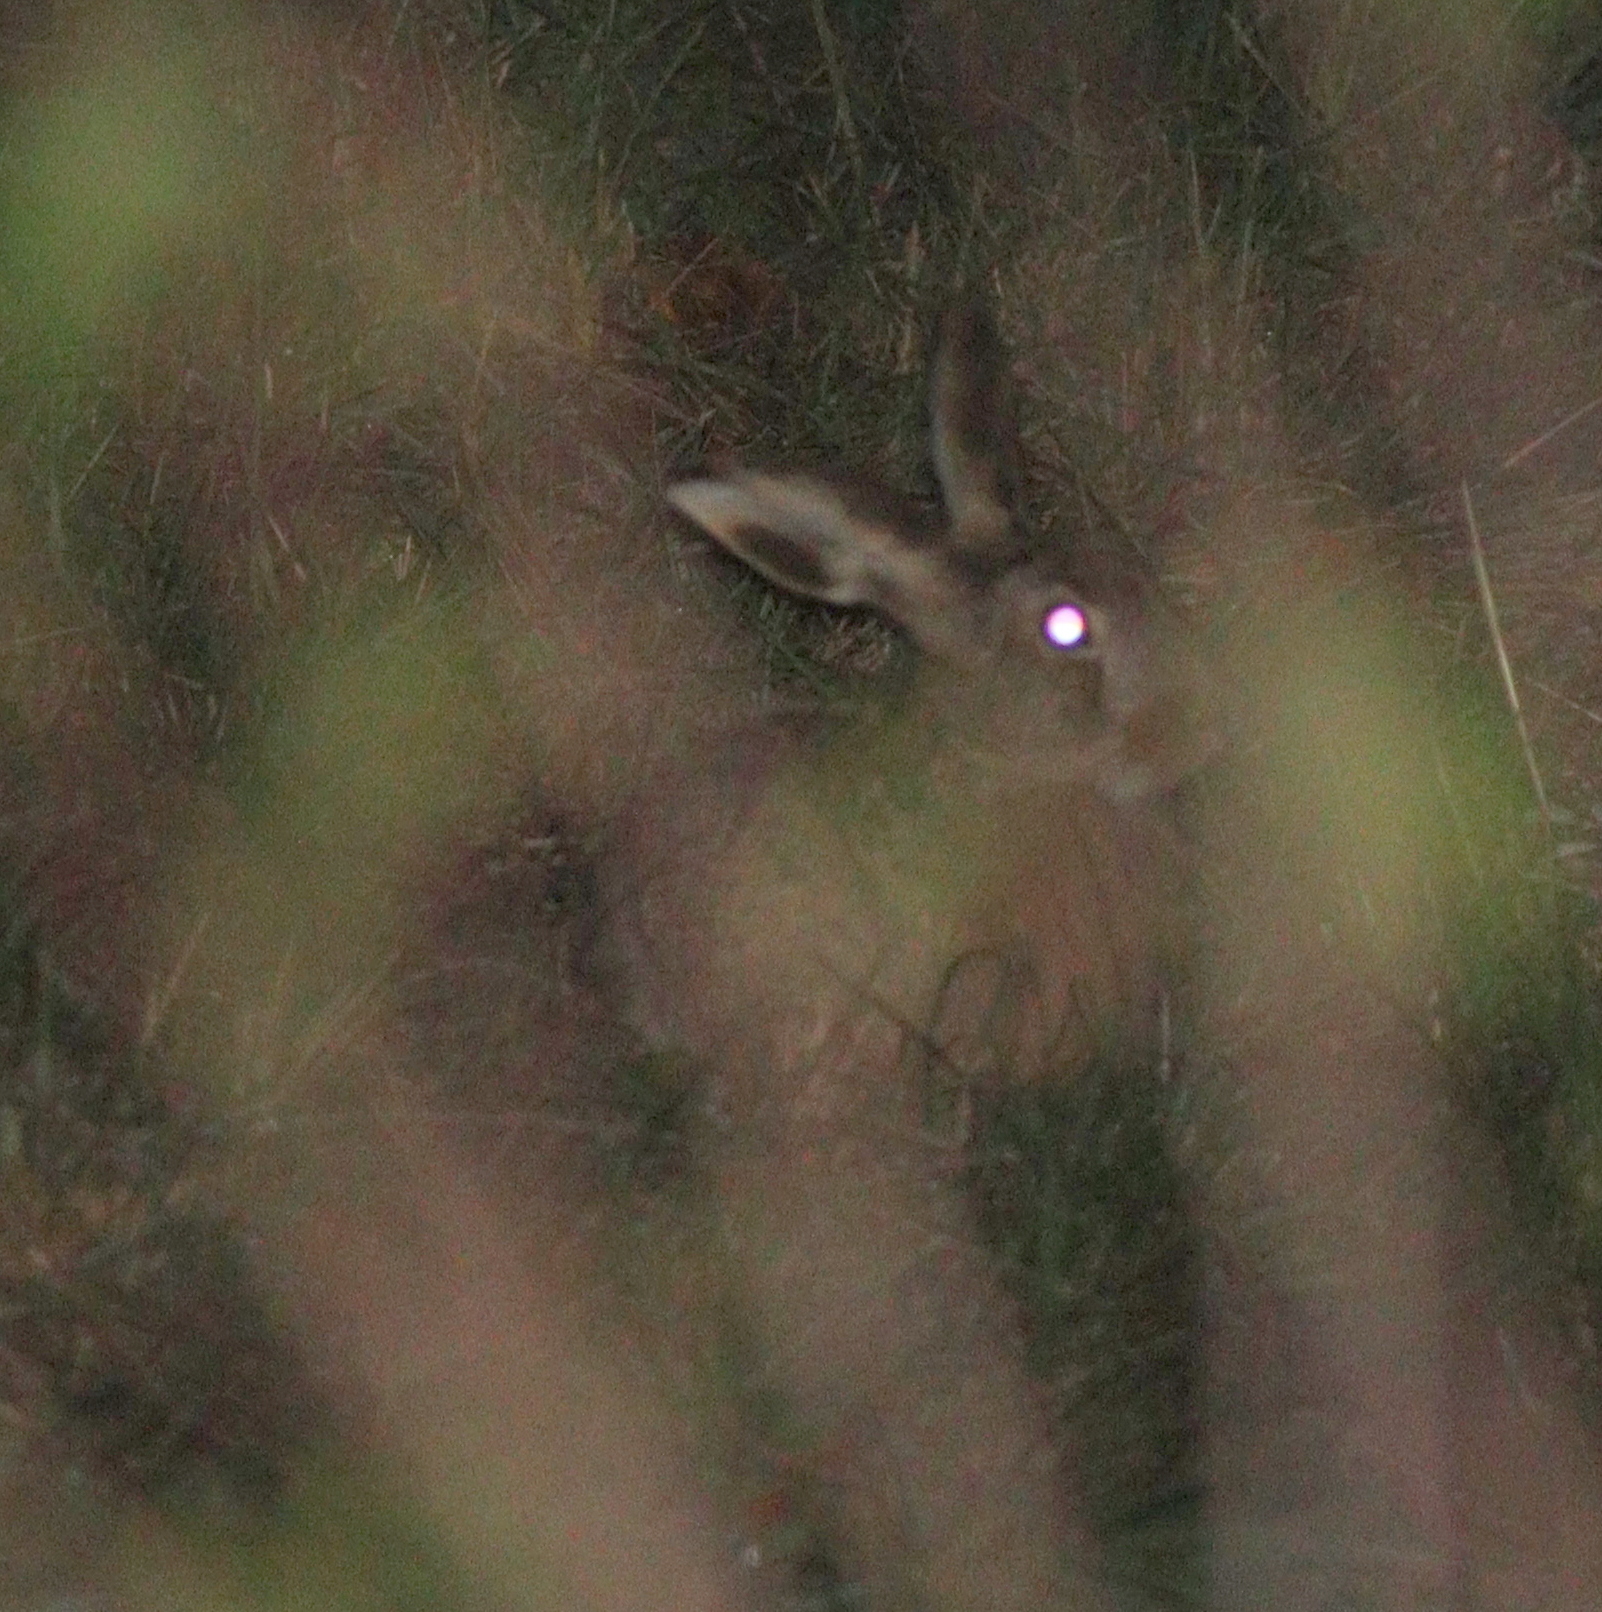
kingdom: Animalia
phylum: Chordata
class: Mammalia
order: Lagomorpha
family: Leporidae
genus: Lepus
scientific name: Lepus europaeus
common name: European hare
